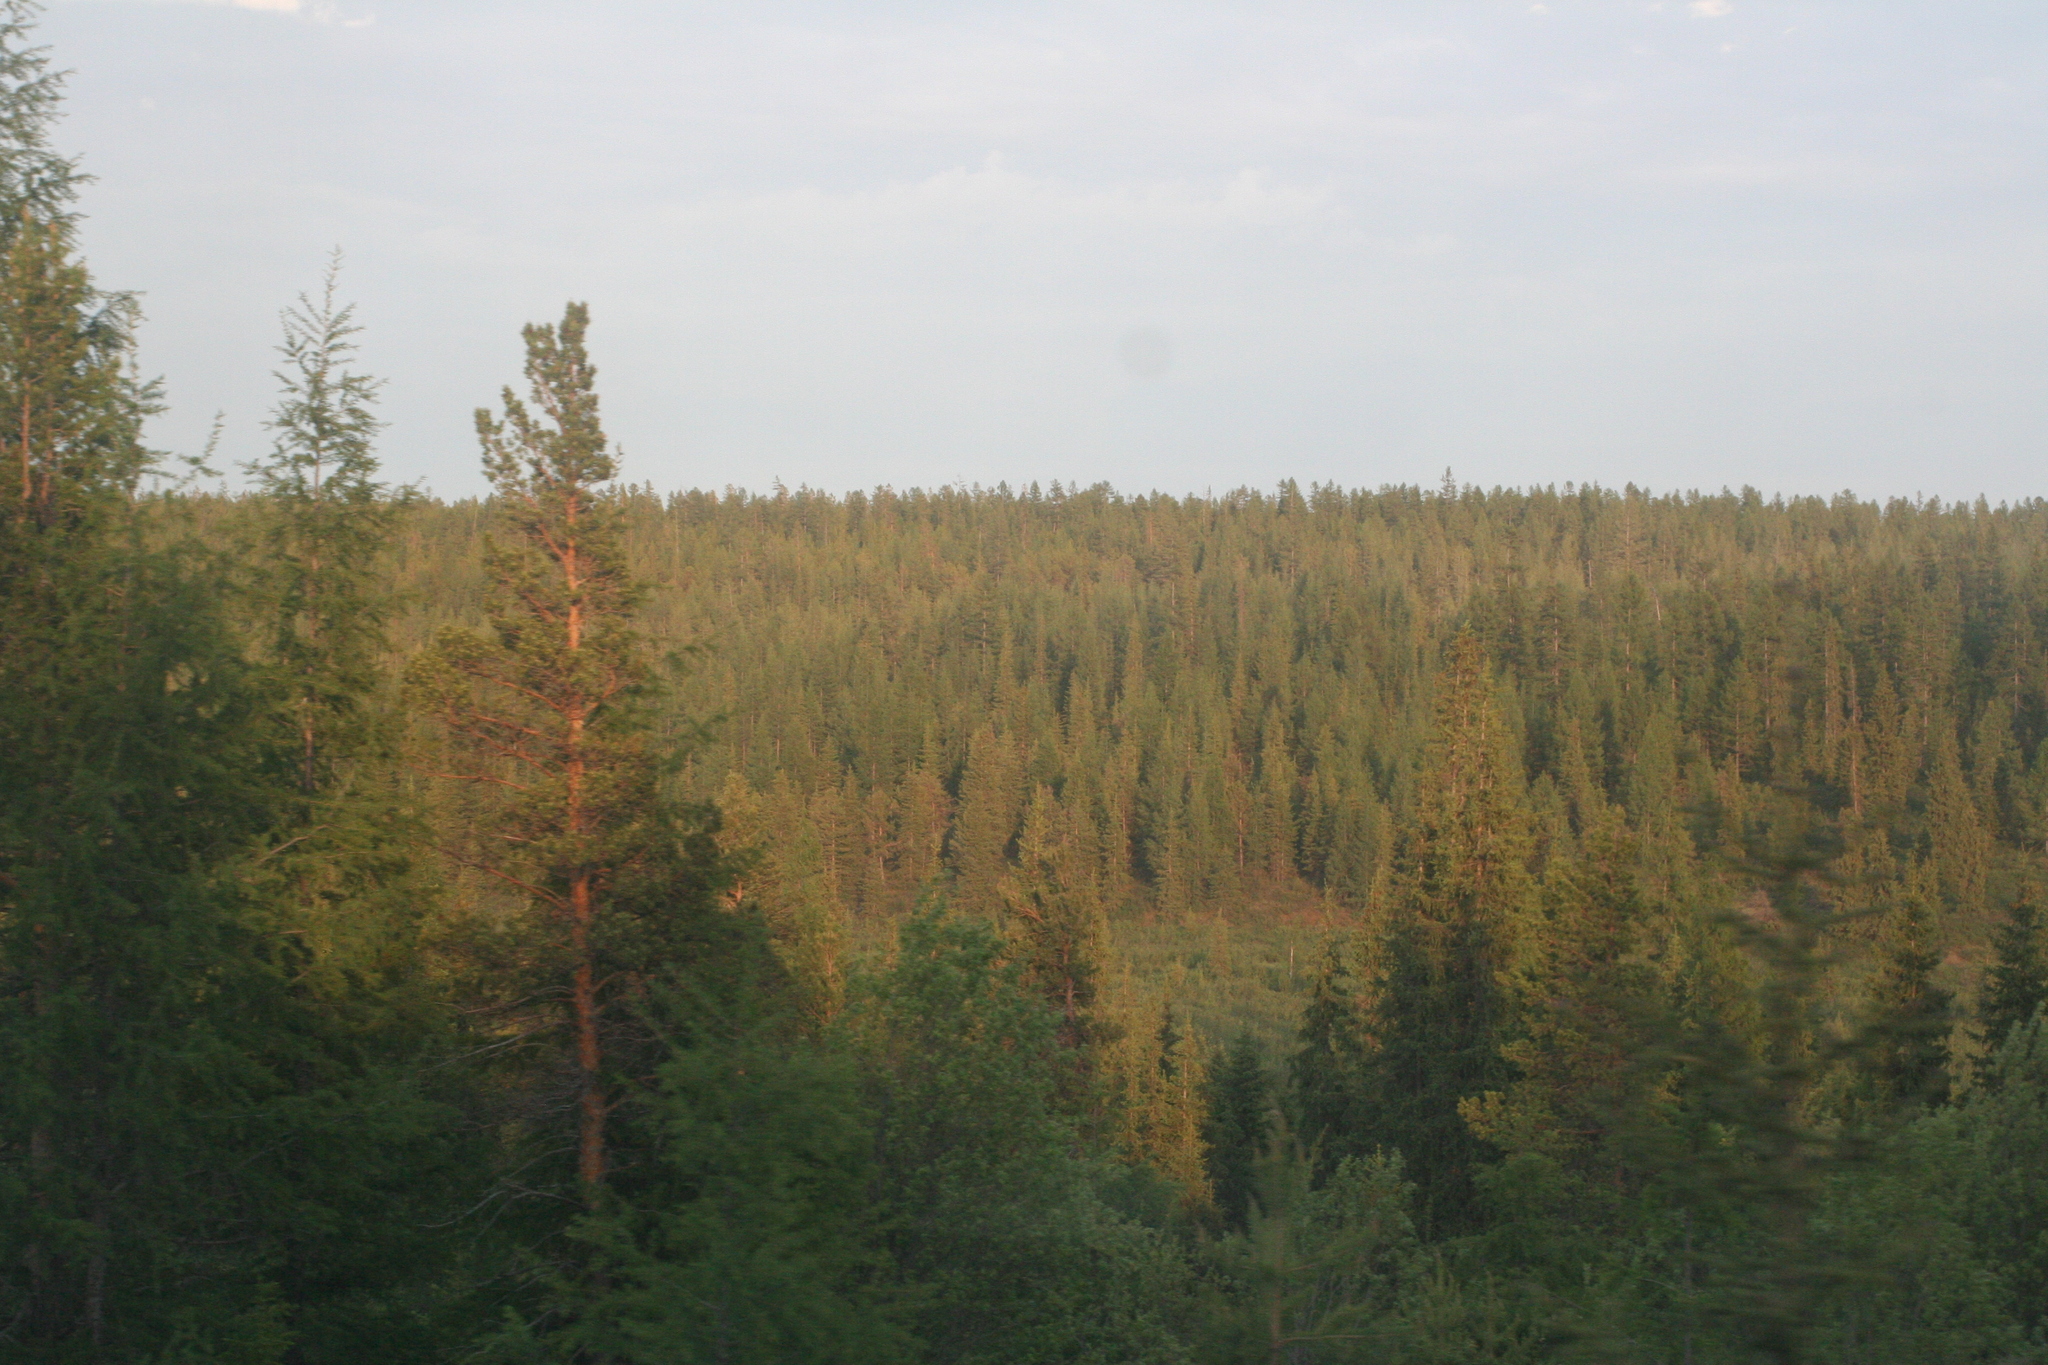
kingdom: Plantae
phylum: Tracheophyta
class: Pinopsida
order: Pinales
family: Pinaceae
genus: Pinus
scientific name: Pinus sylvestris
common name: Scots pine
